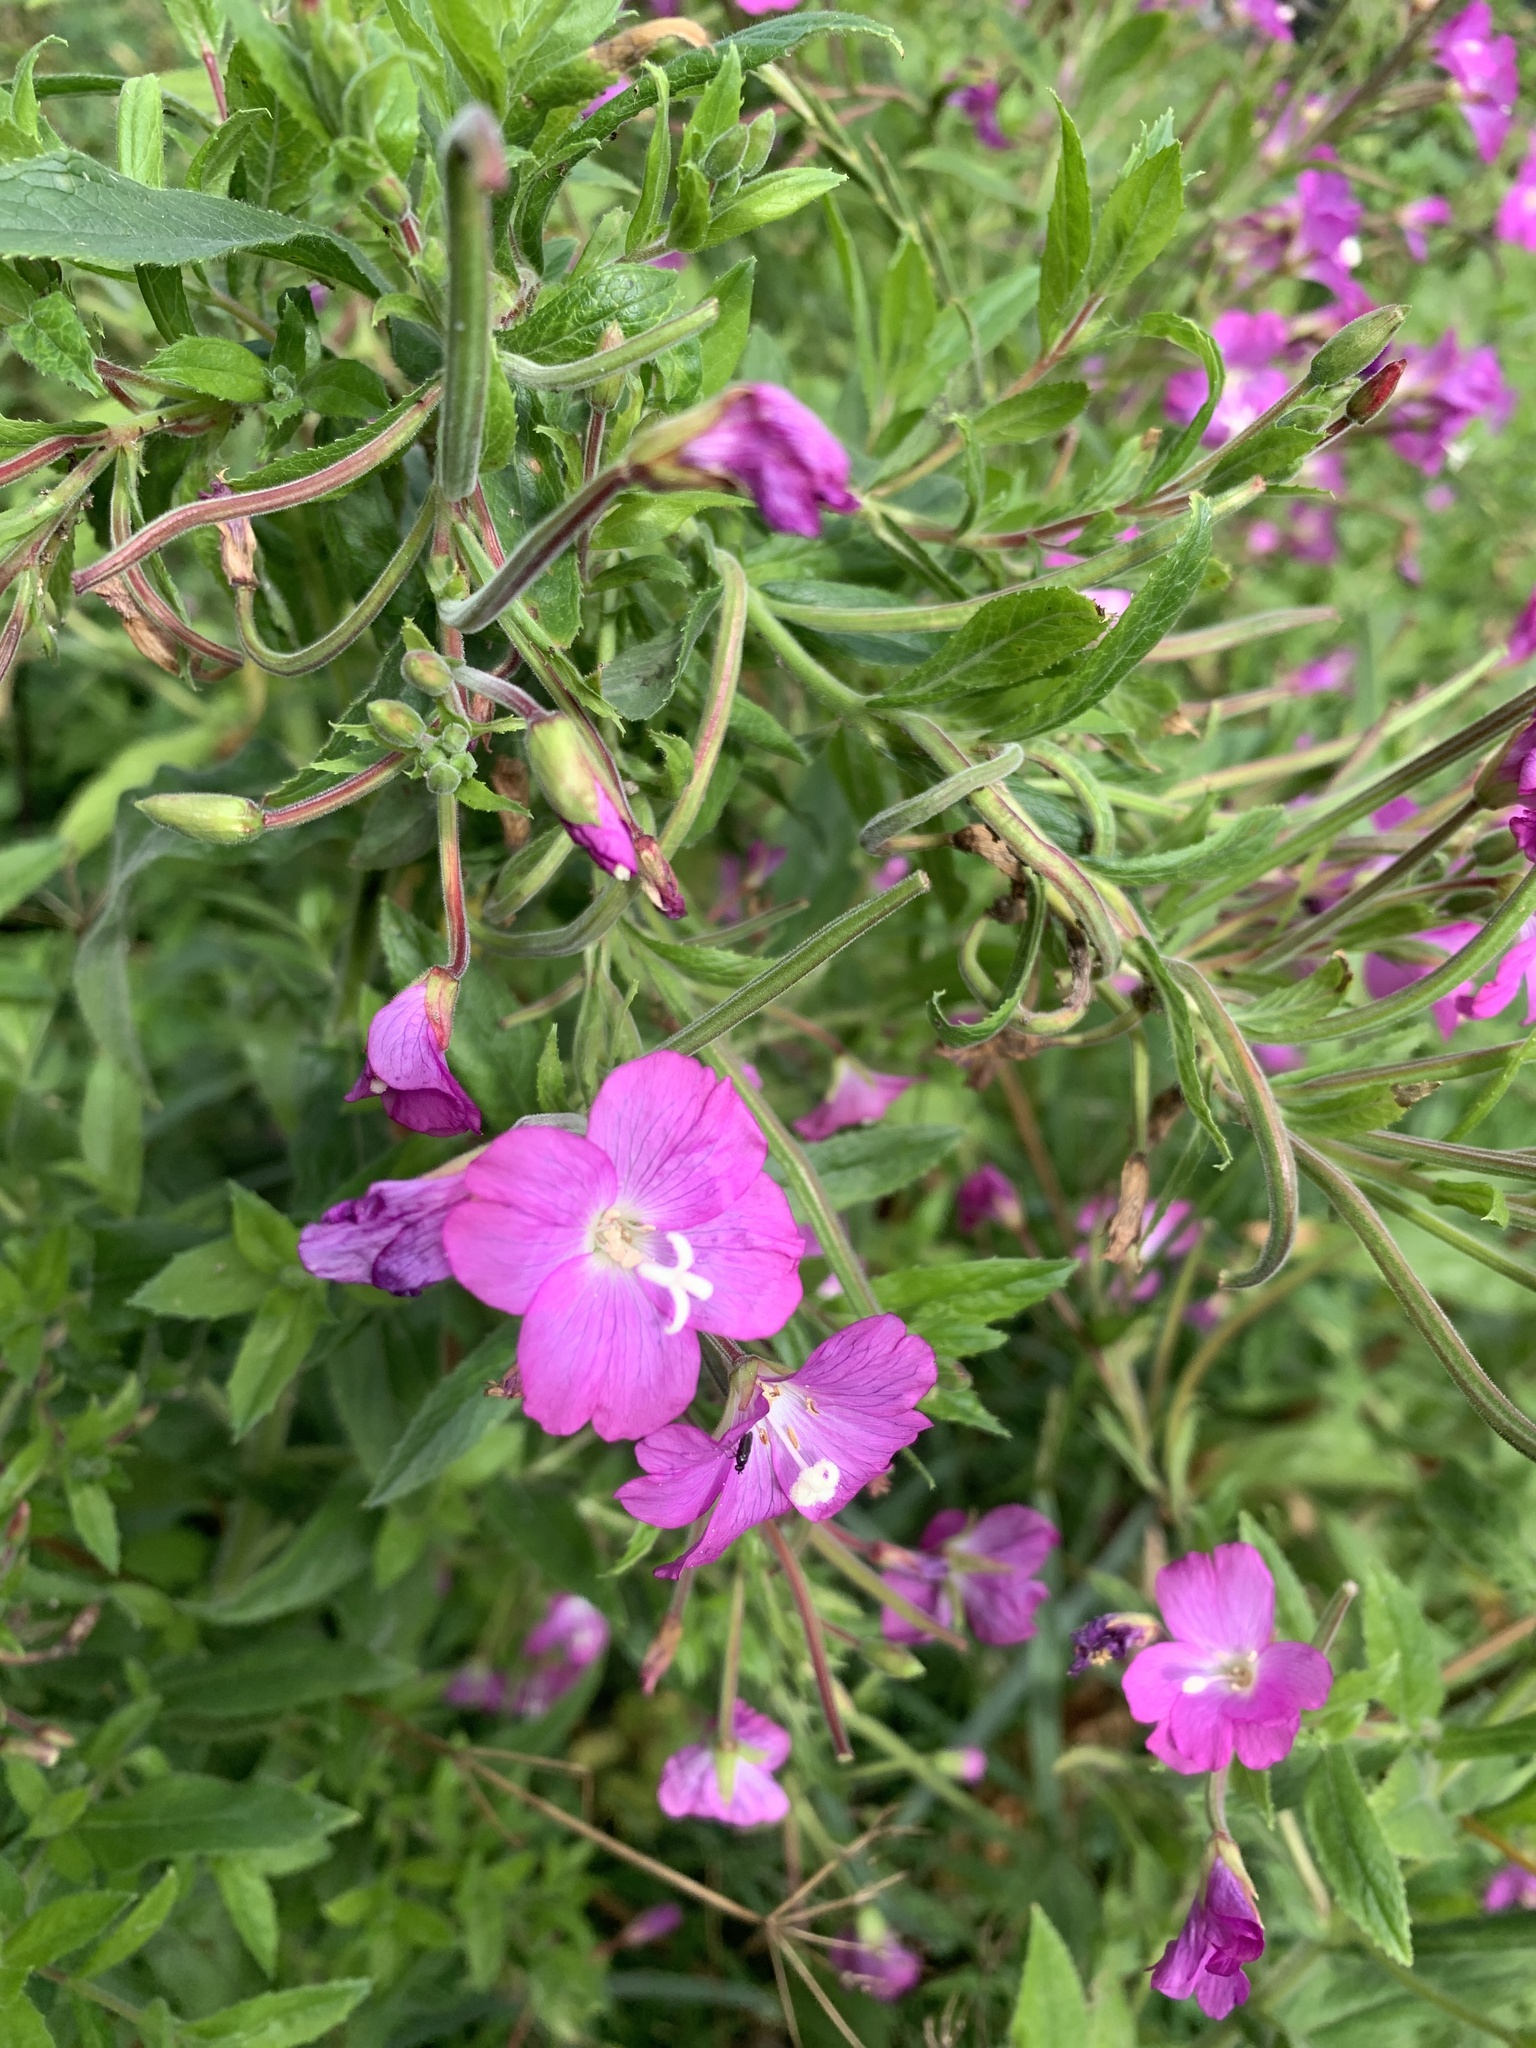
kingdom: Plantae
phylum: Tracheophyta
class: Magnoliopsida
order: Myrtales
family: Onagraceae
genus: Epilobium
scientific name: Epilobium hirsutum
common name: Great willowherb
